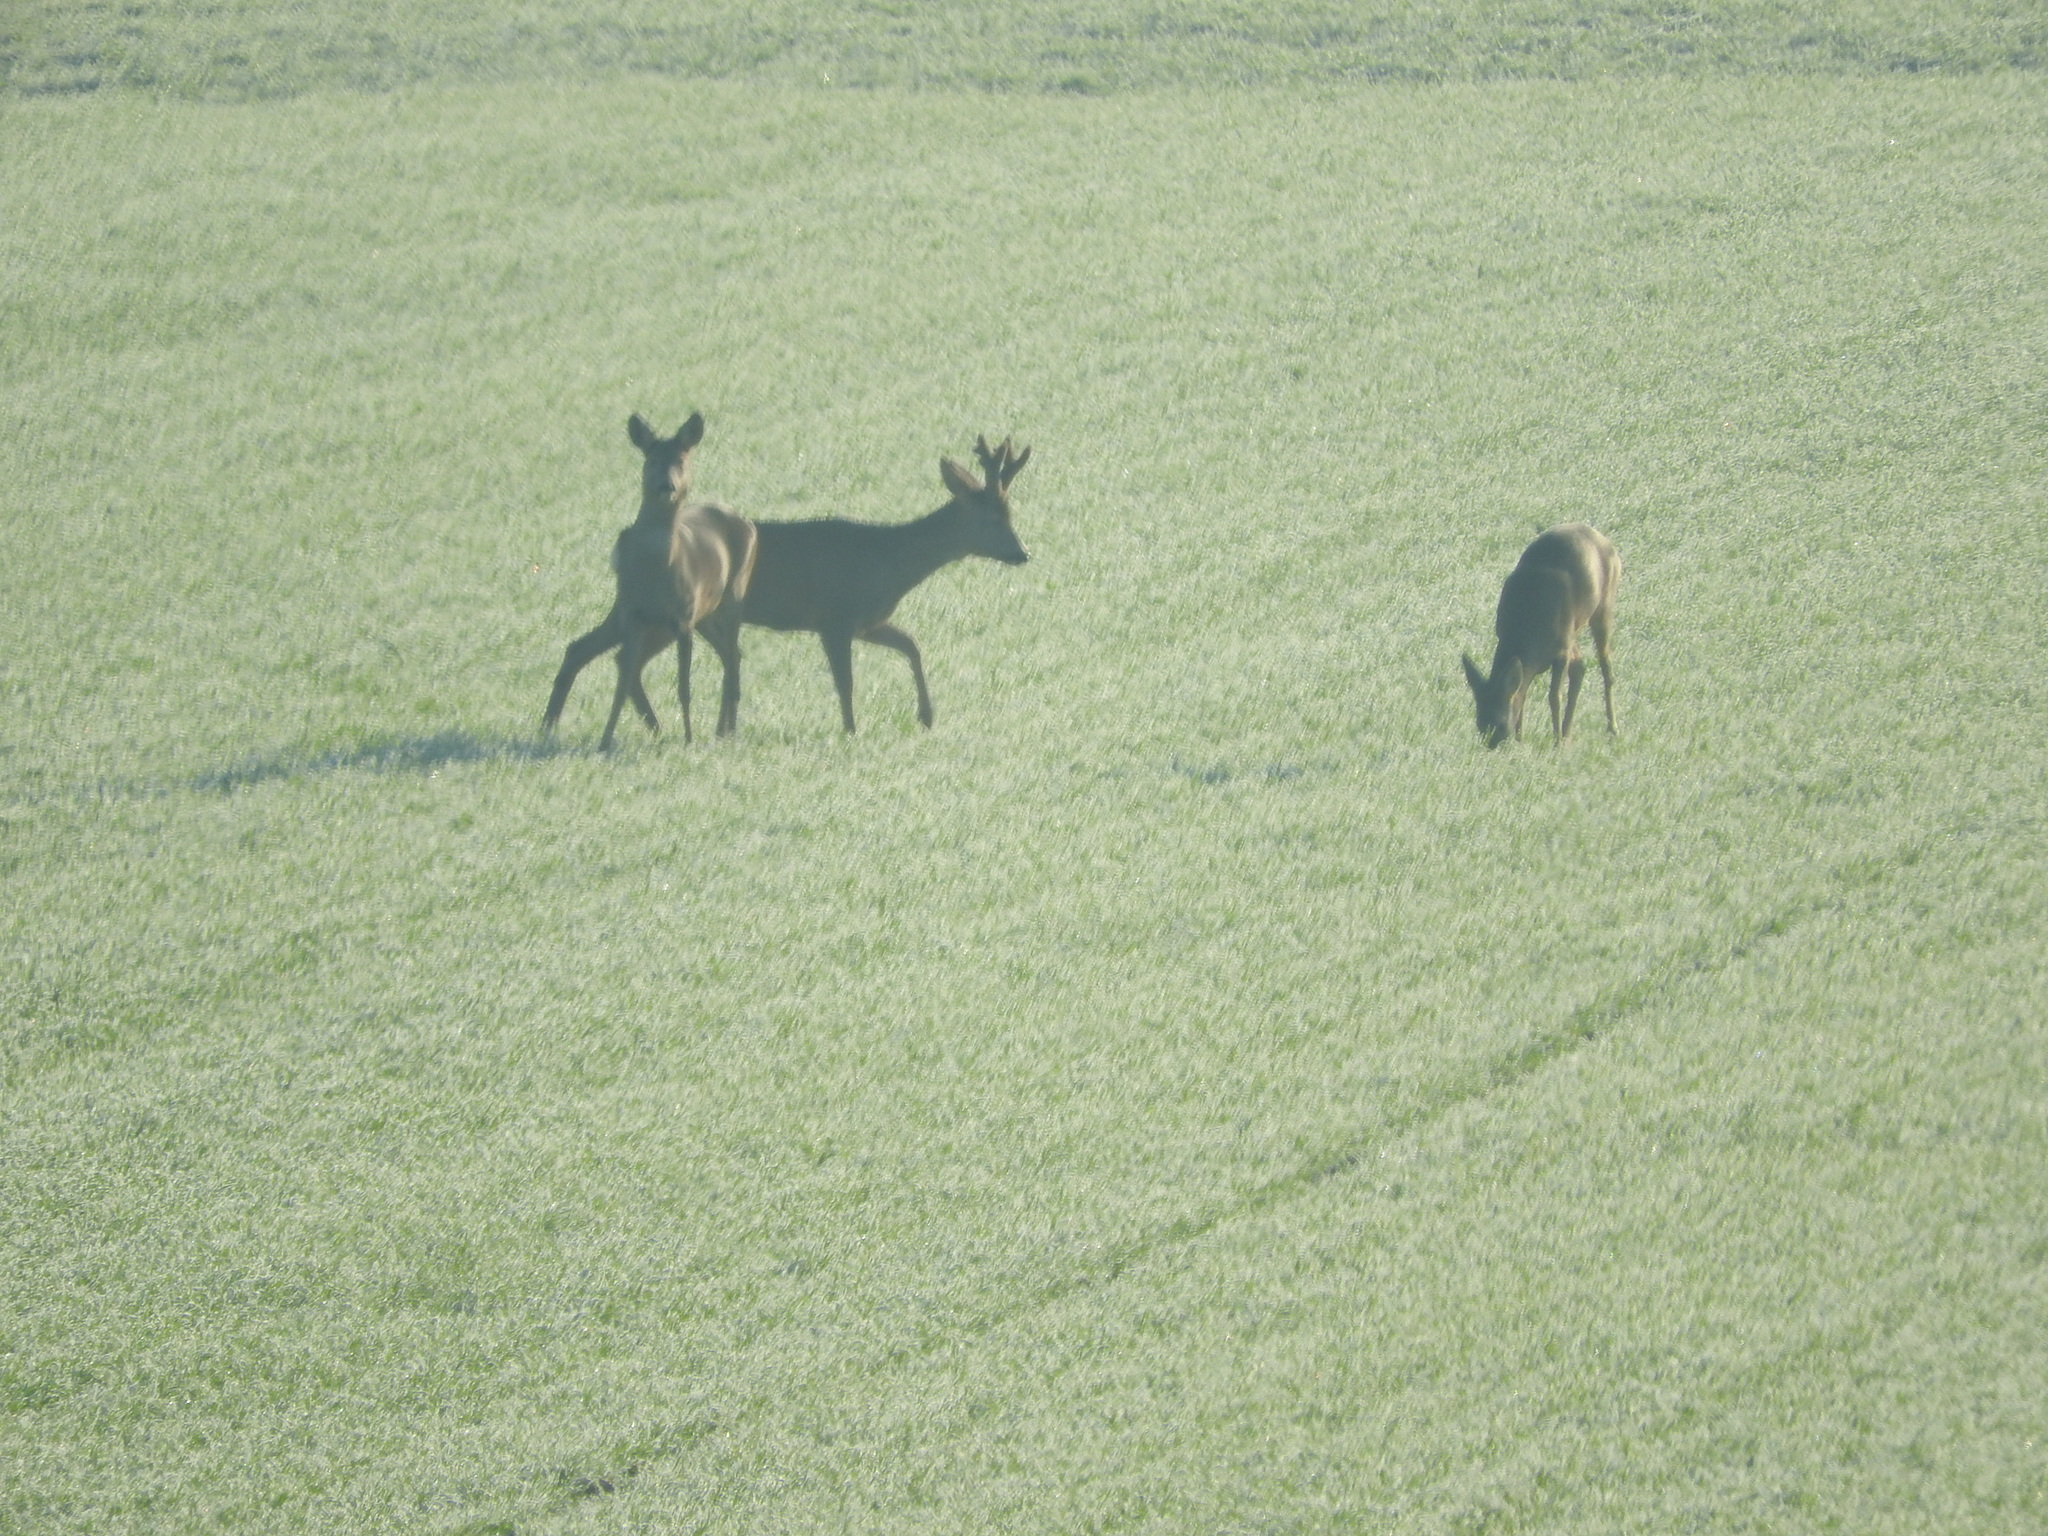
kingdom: Animalia
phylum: Chordata
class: Mammalia
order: Artiodactyla
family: Cervidae
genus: Capreolus
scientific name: Capreolus capreolus
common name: Western roe deer
